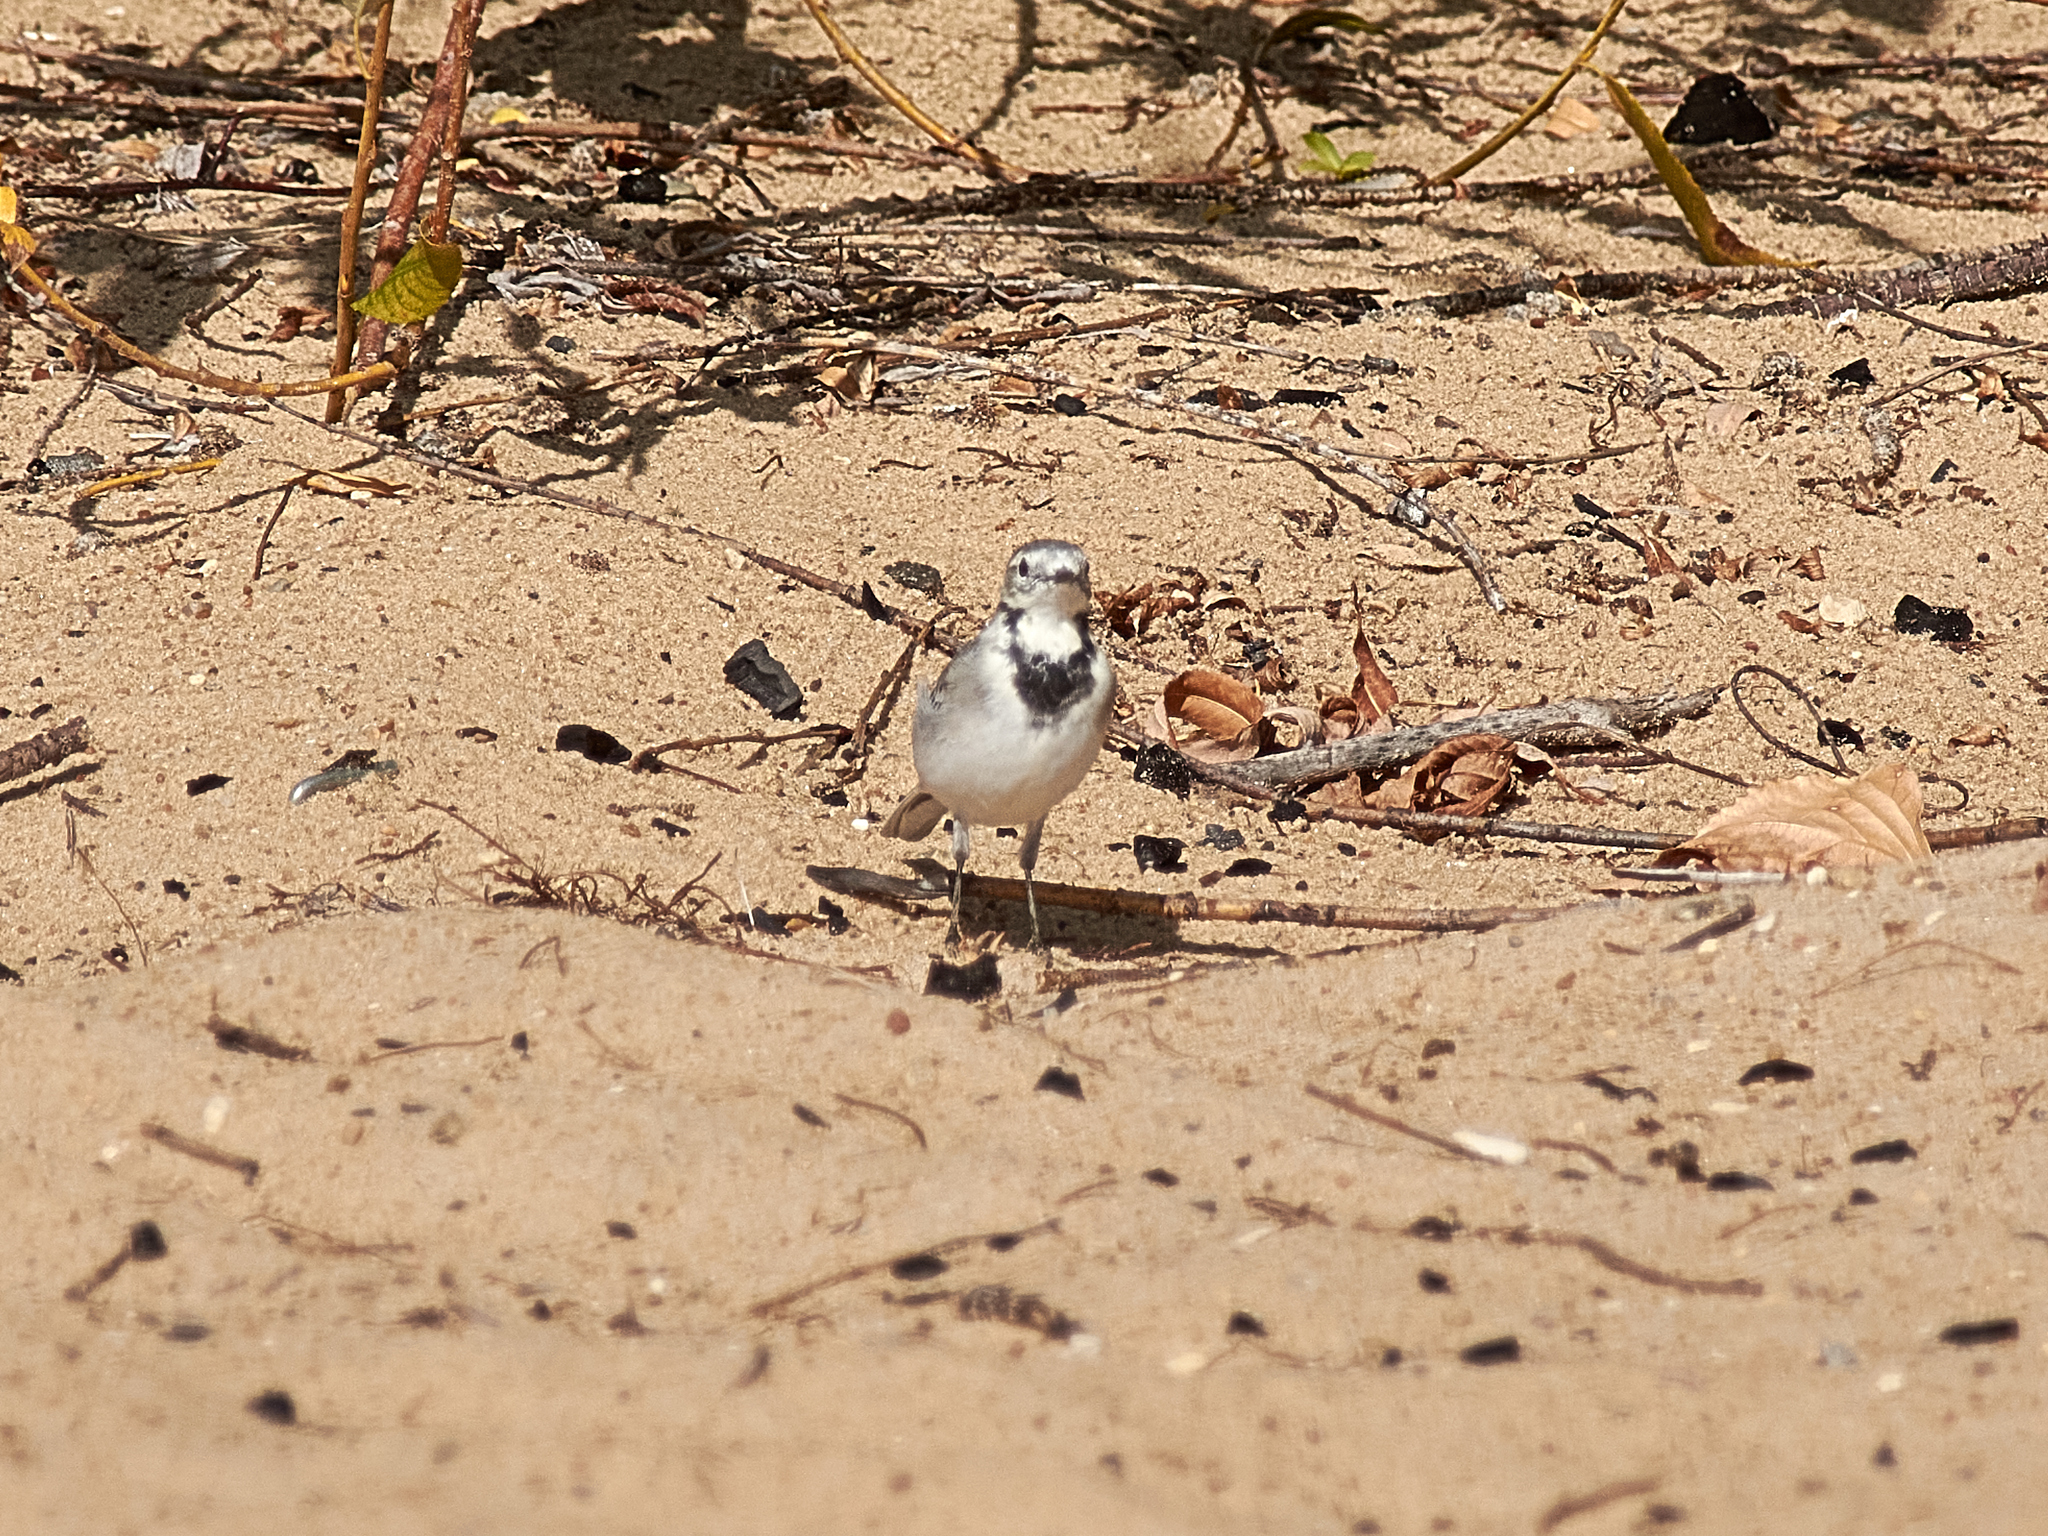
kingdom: Animalia
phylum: Chordata
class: Aves
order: Passeriformes
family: Motacillidae
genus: Motacilla
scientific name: Motacilla alba
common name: White wagtail
